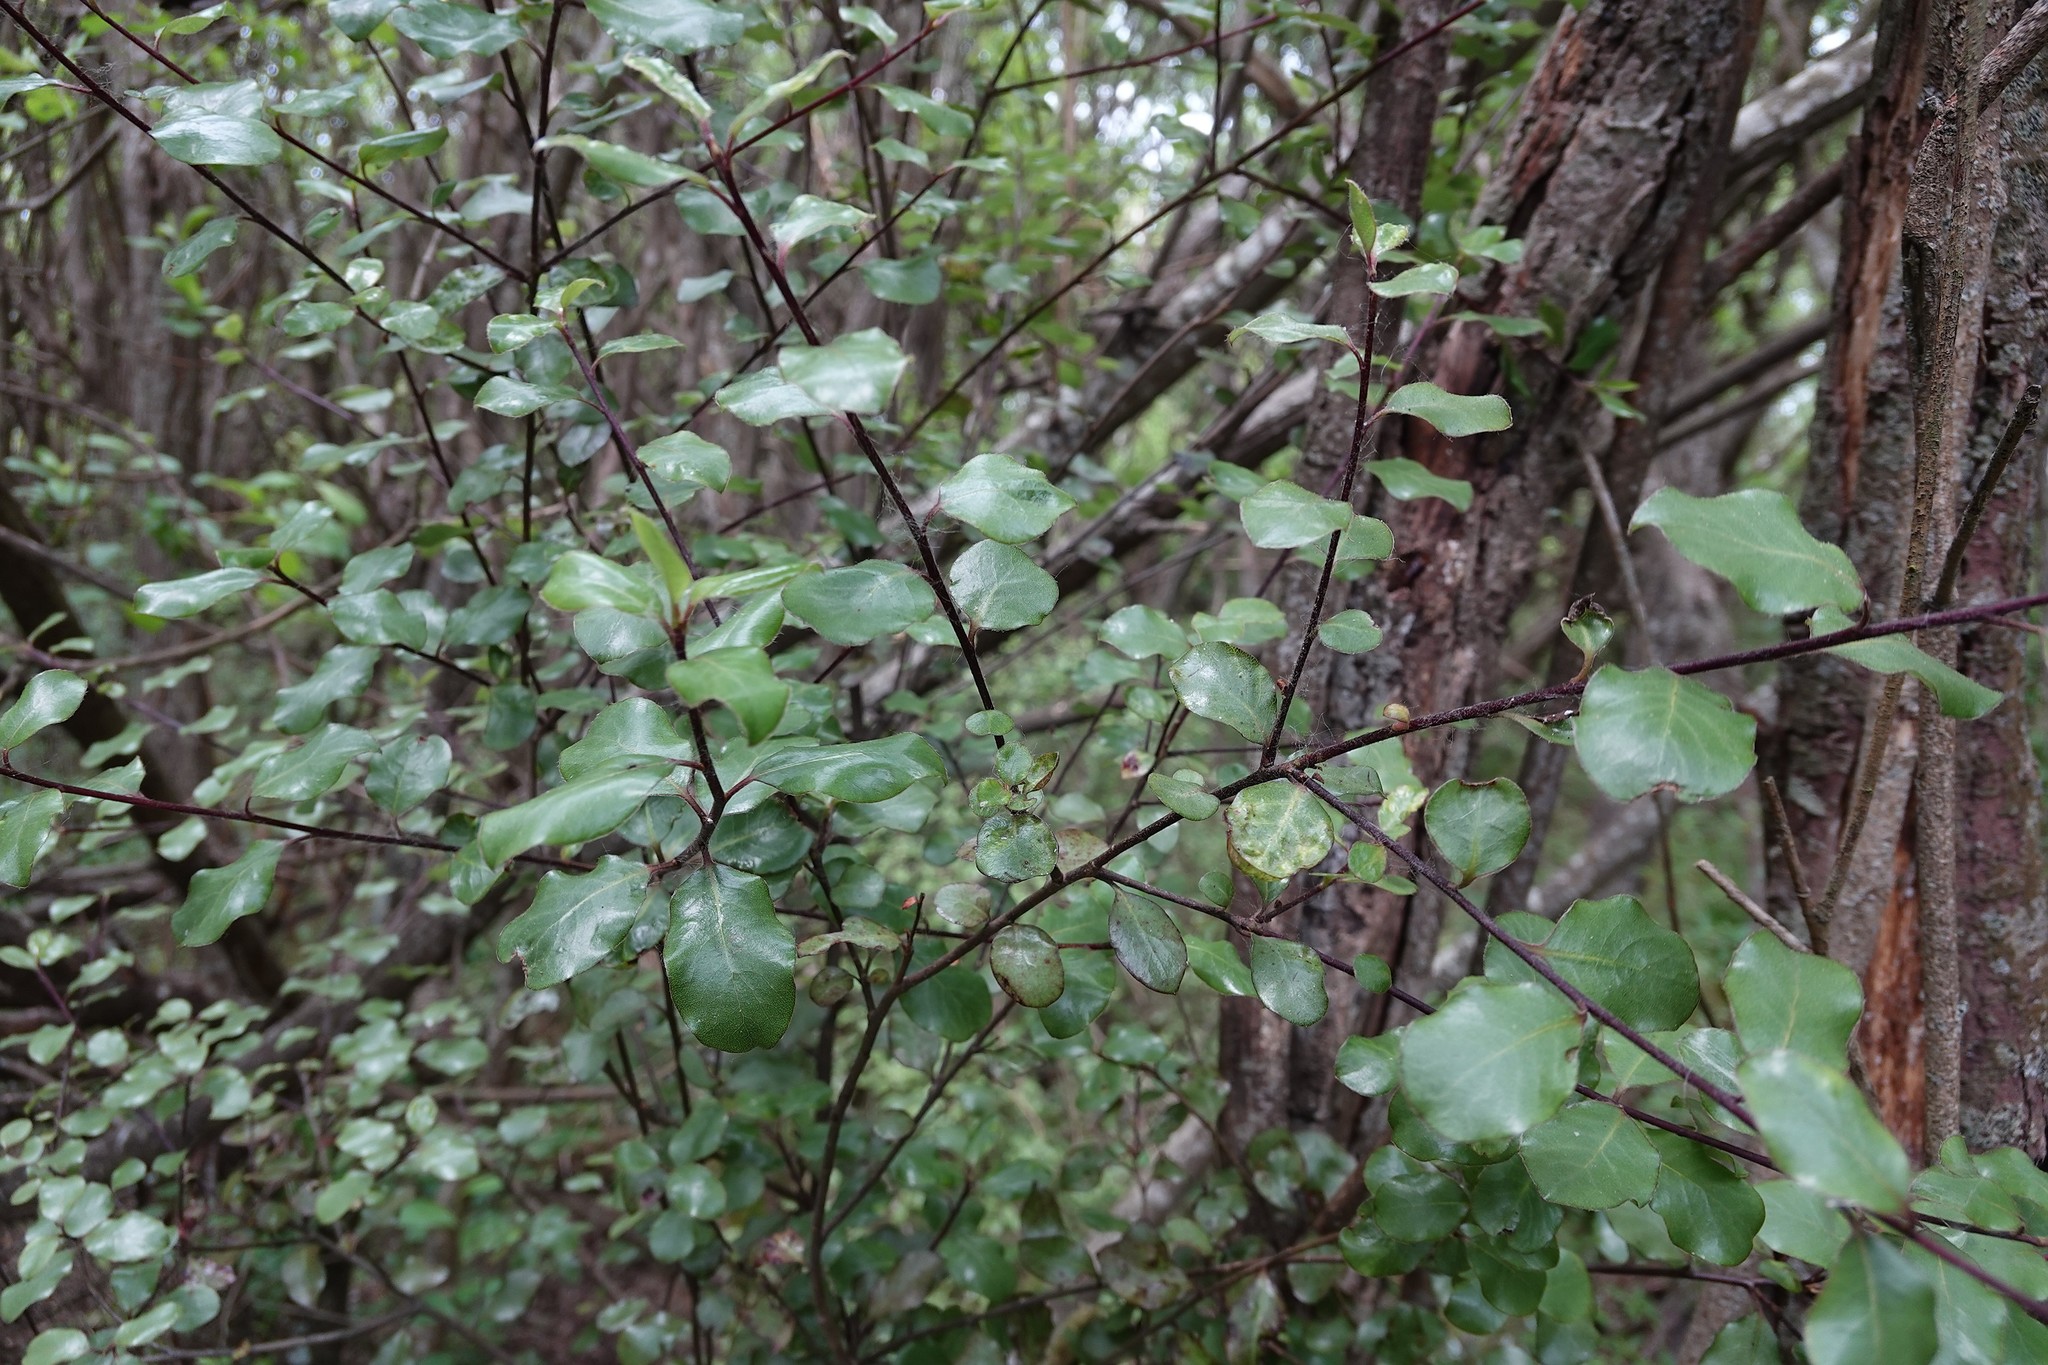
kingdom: Plantae
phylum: Tracheophyta
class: Magnoliopsida
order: Apiales
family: Pittosporaceae
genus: Pittosporum
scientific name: Pittosporum tenuifolium
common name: Kohuhu
